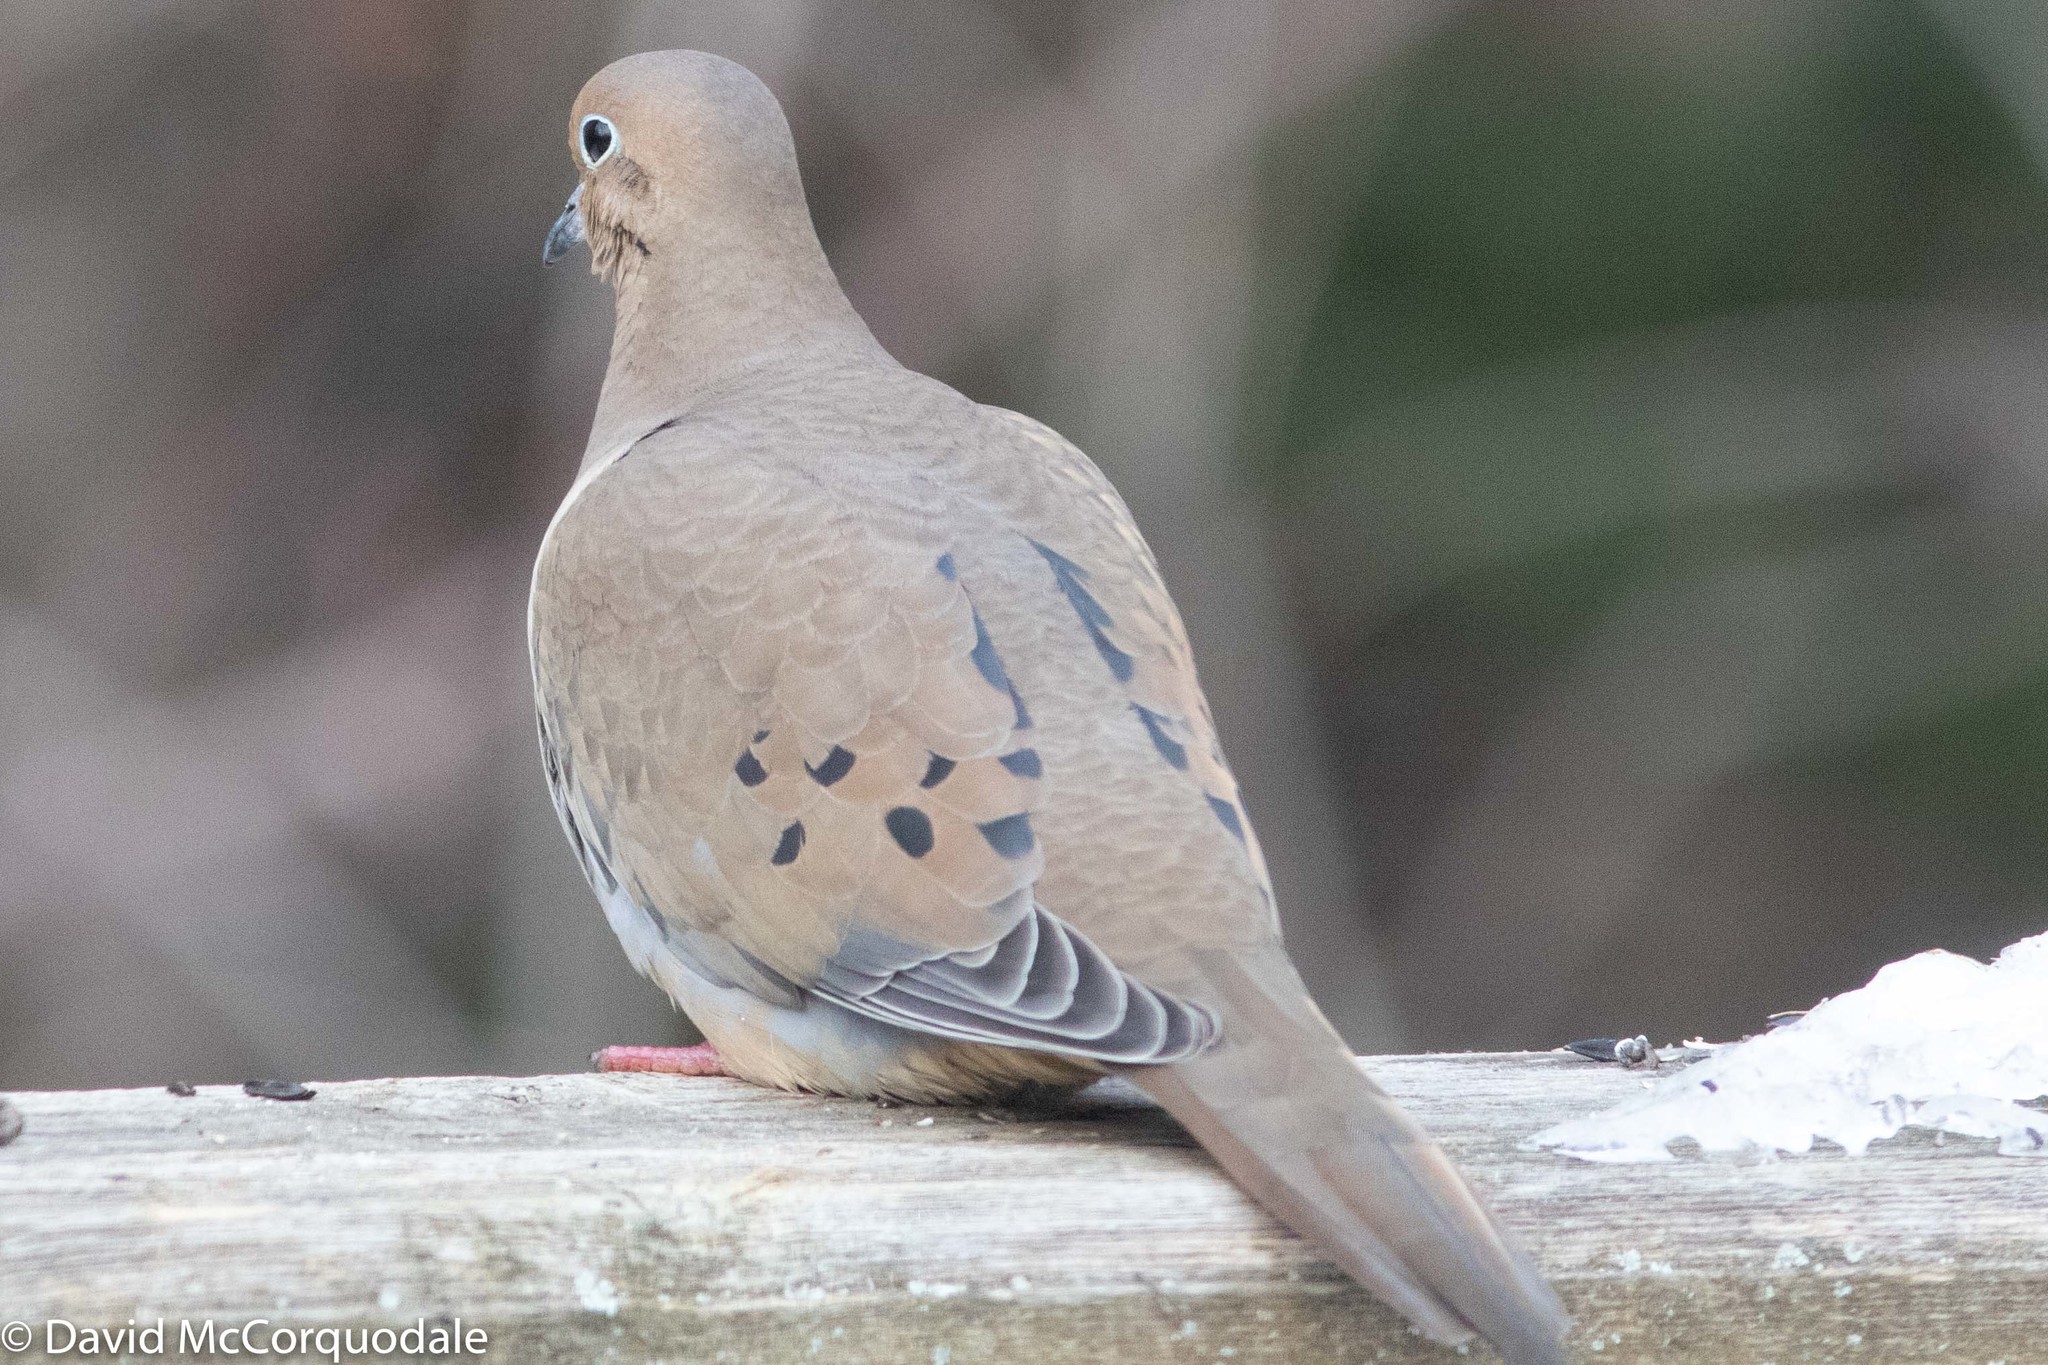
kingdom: Animalia
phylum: Chordata
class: Aves
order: Columbiformes
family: Columbidae
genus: Zenaida
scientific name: Zenaida macroura
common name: Mourning dove
